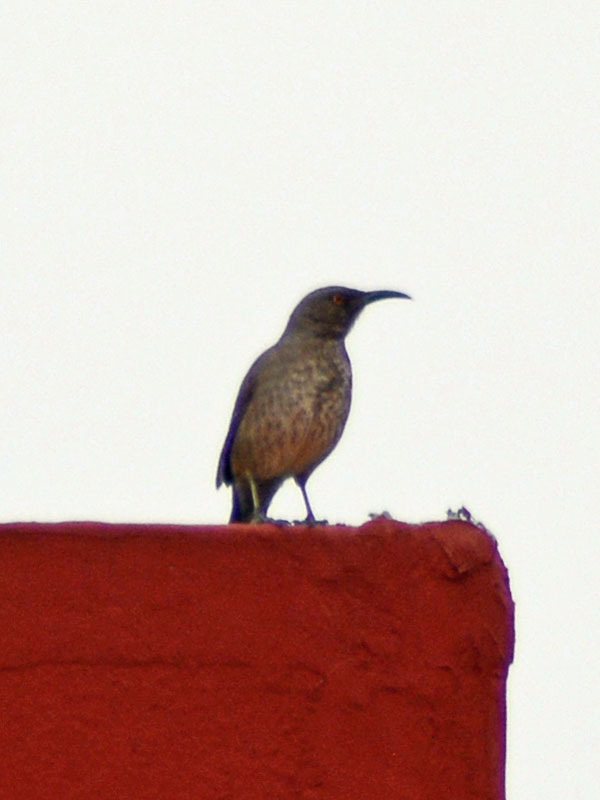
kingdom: Animalia
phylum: Chordata
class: Aves
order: Passeriformes
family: Mimidae
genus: Toxostoma
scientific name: Toxostoma curvirostre
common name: Curve-billed thrasher
